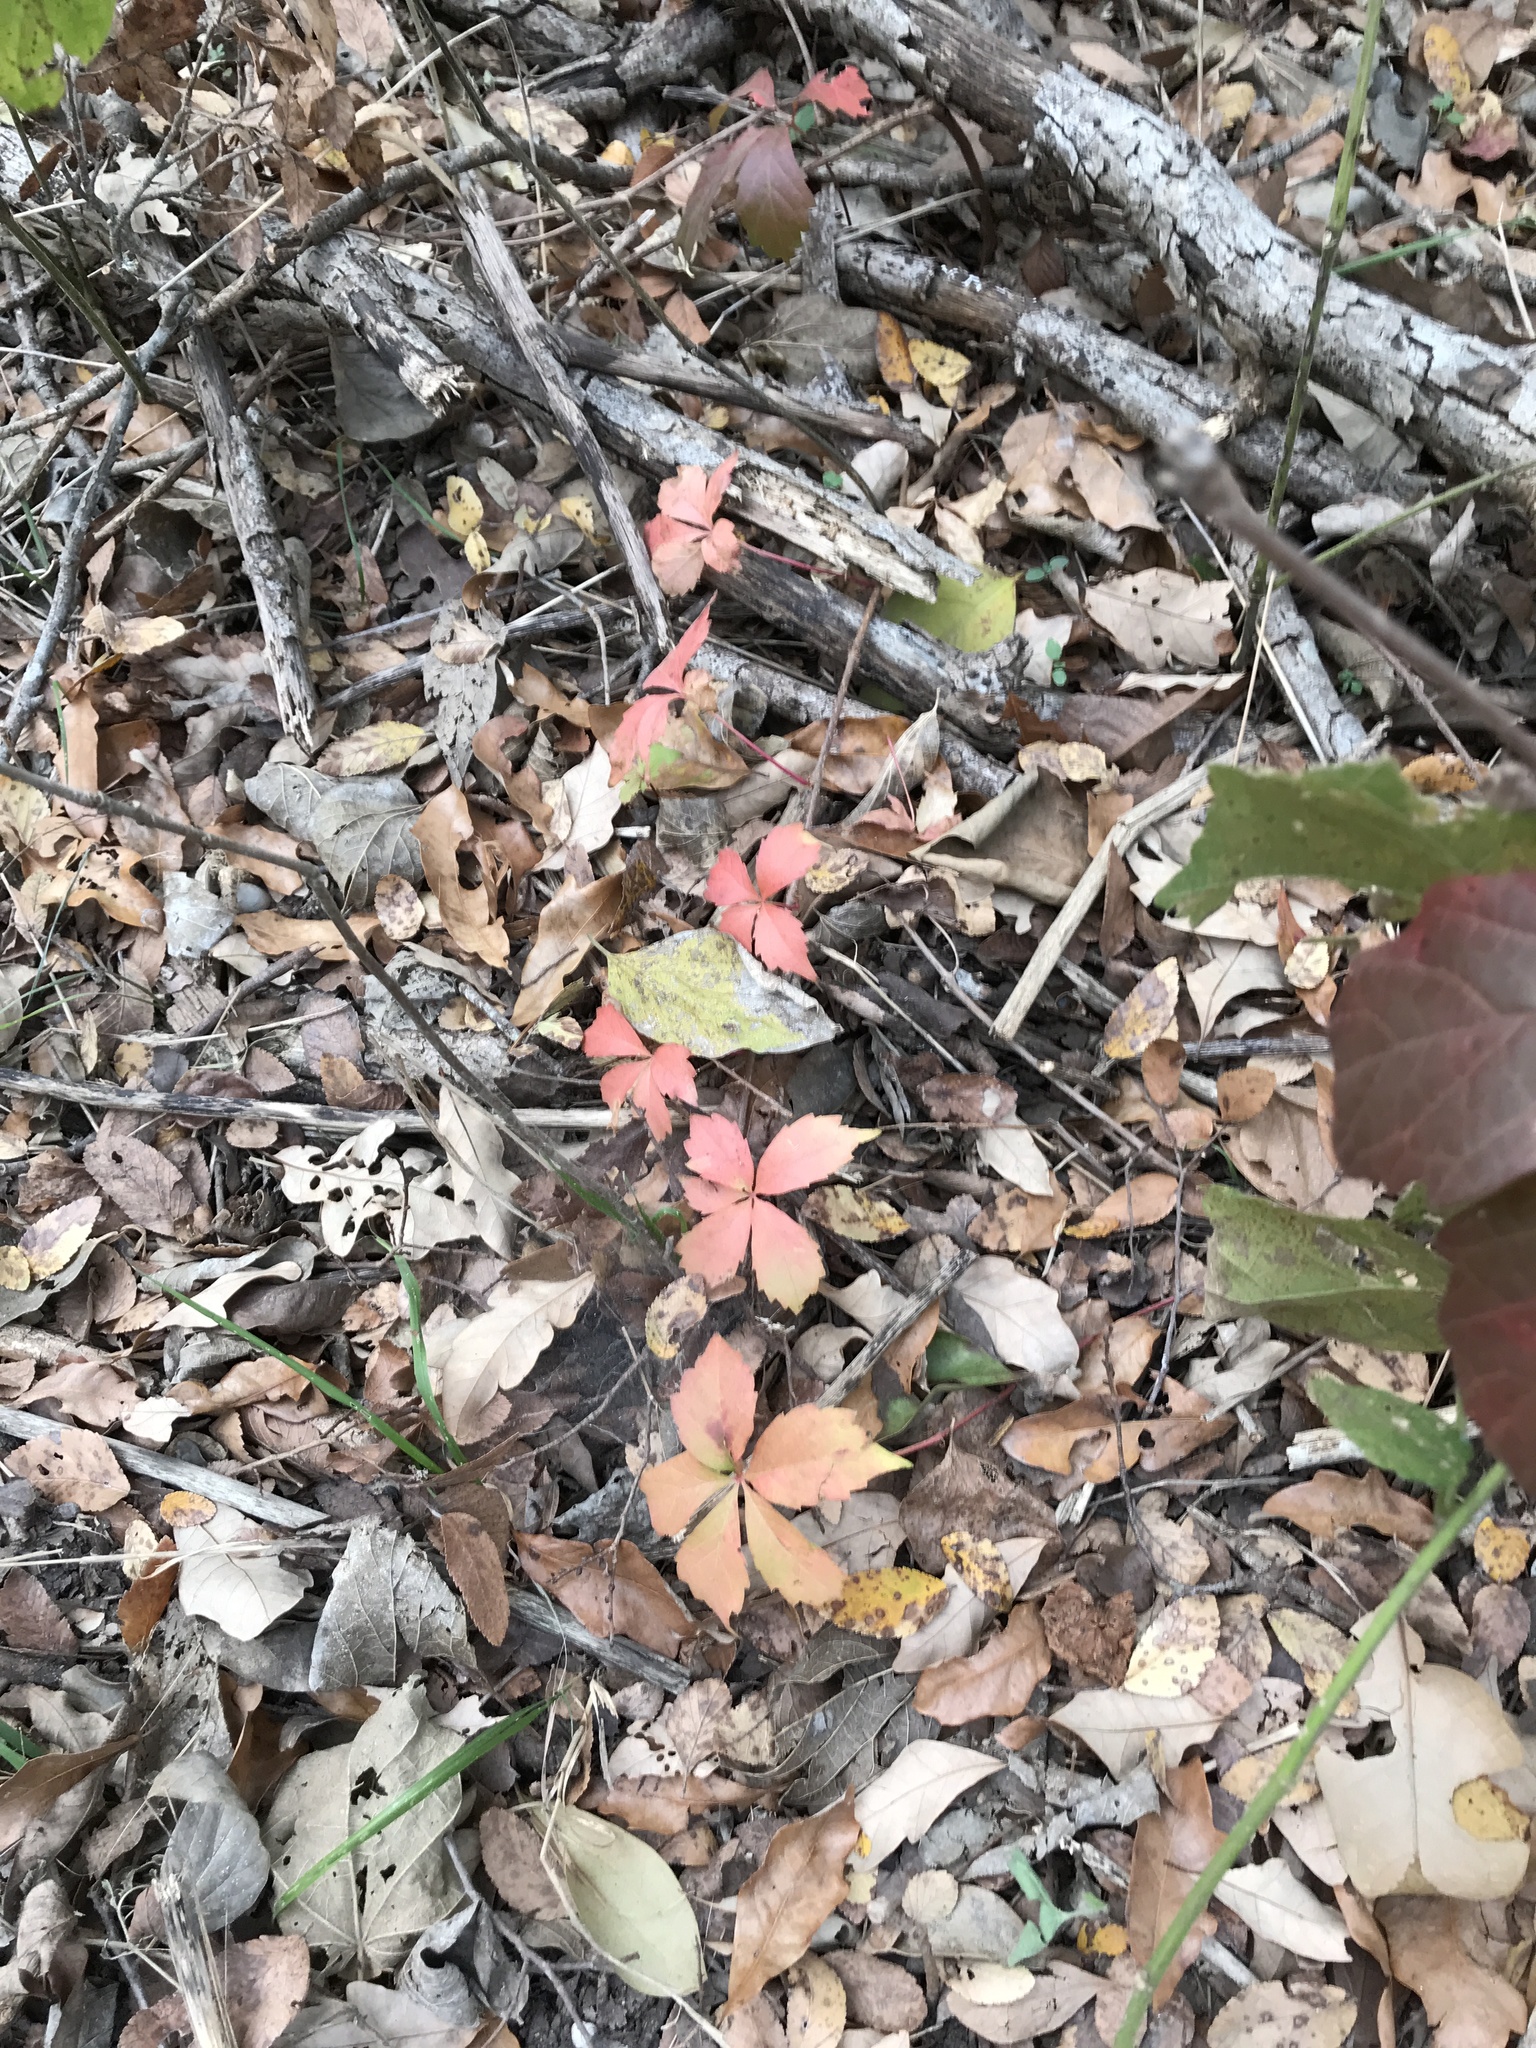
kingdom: Plantae
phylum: Tracheophyta
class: Magnoliopsida
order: Vitales
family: Vitaceae
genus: Parthenocissus
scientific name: Parthenocissus quinquefolia
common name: Virginia-creeper
